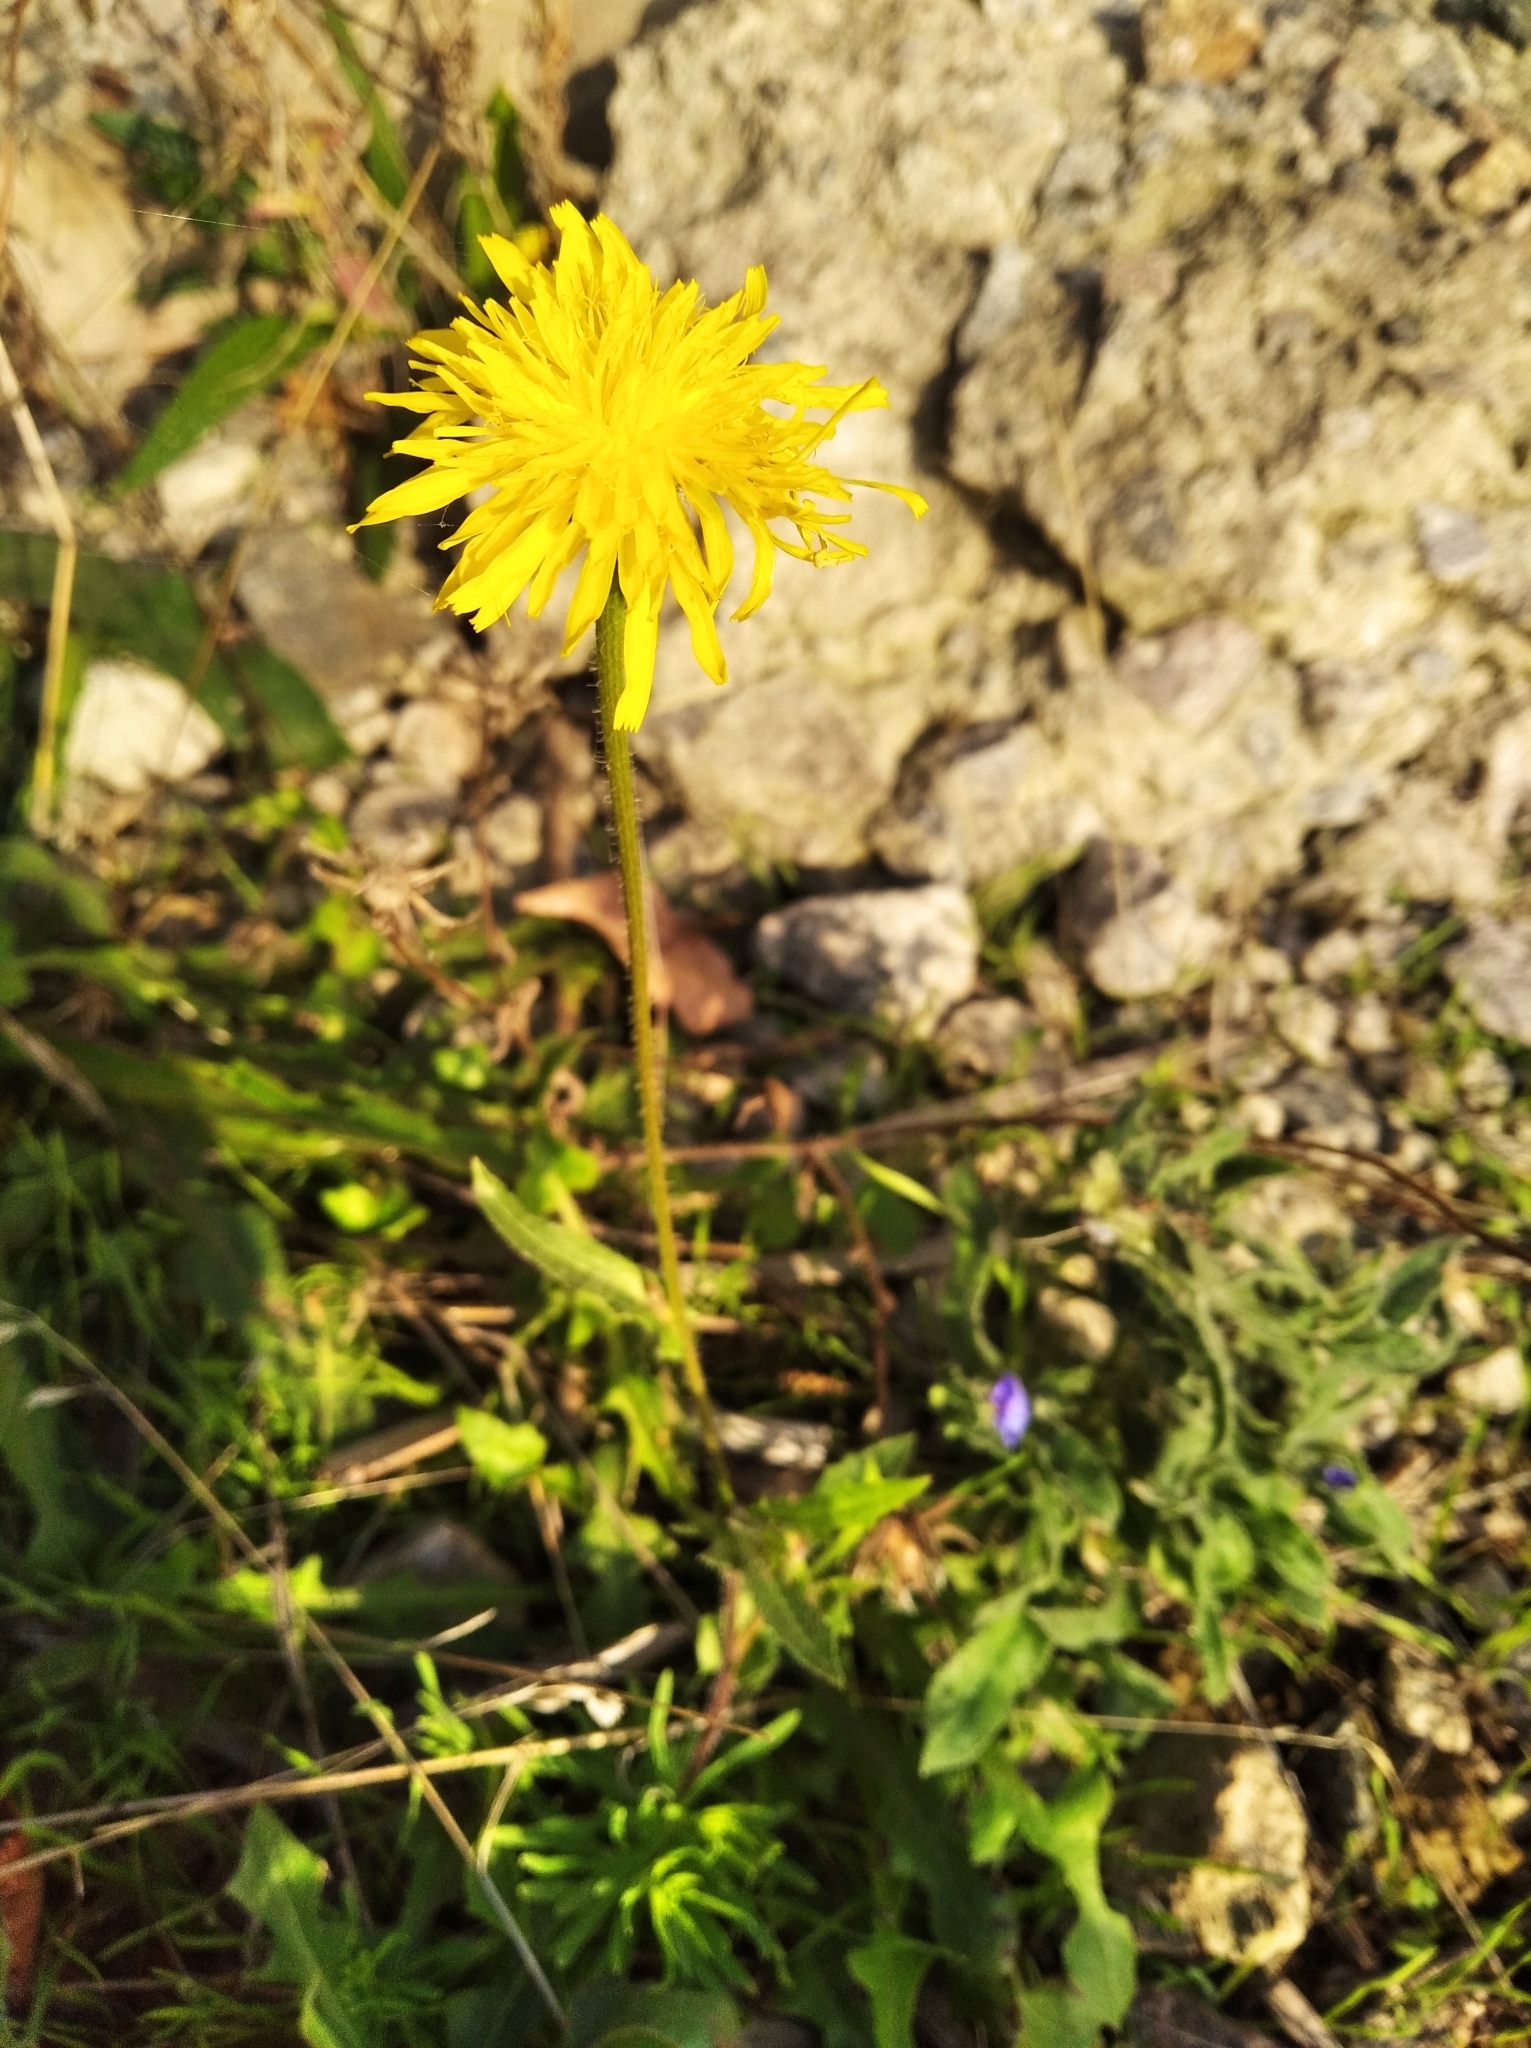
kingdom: Plantae
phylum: Tracheophyta
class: Magnoliopsida
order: Asterales
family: Asteraceae
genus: Crepis
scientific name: Crepis foetida
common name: Stinking hawk's-beard
